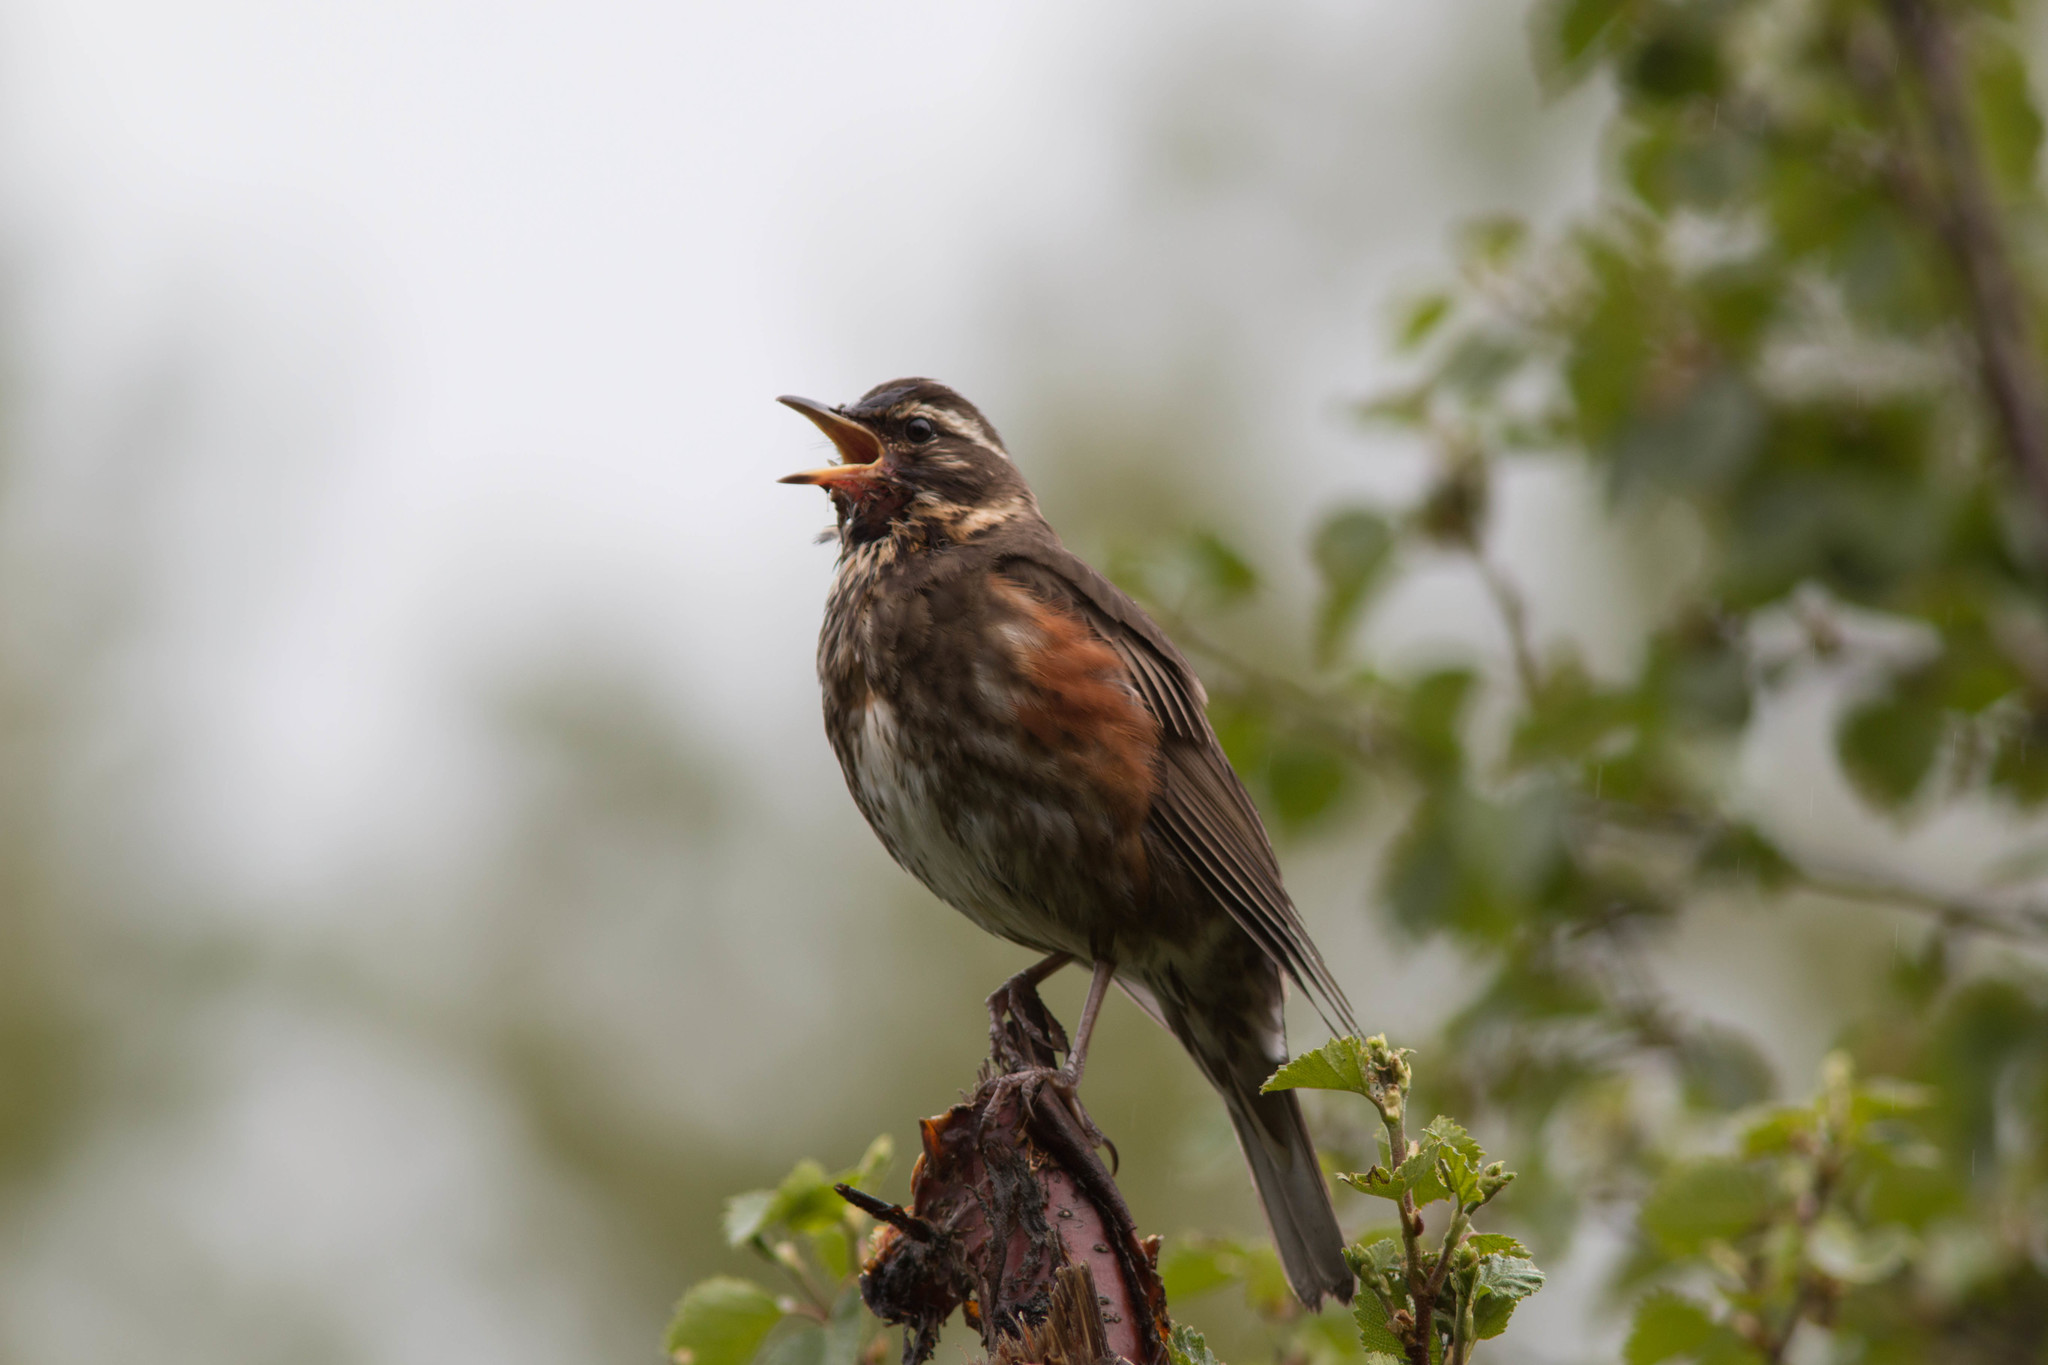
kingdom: Animalia
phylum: Chordata
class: Aves
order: Passeriformes
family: Turdidae
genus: Turdus
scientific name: Turdus iliacus
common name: Redwing
